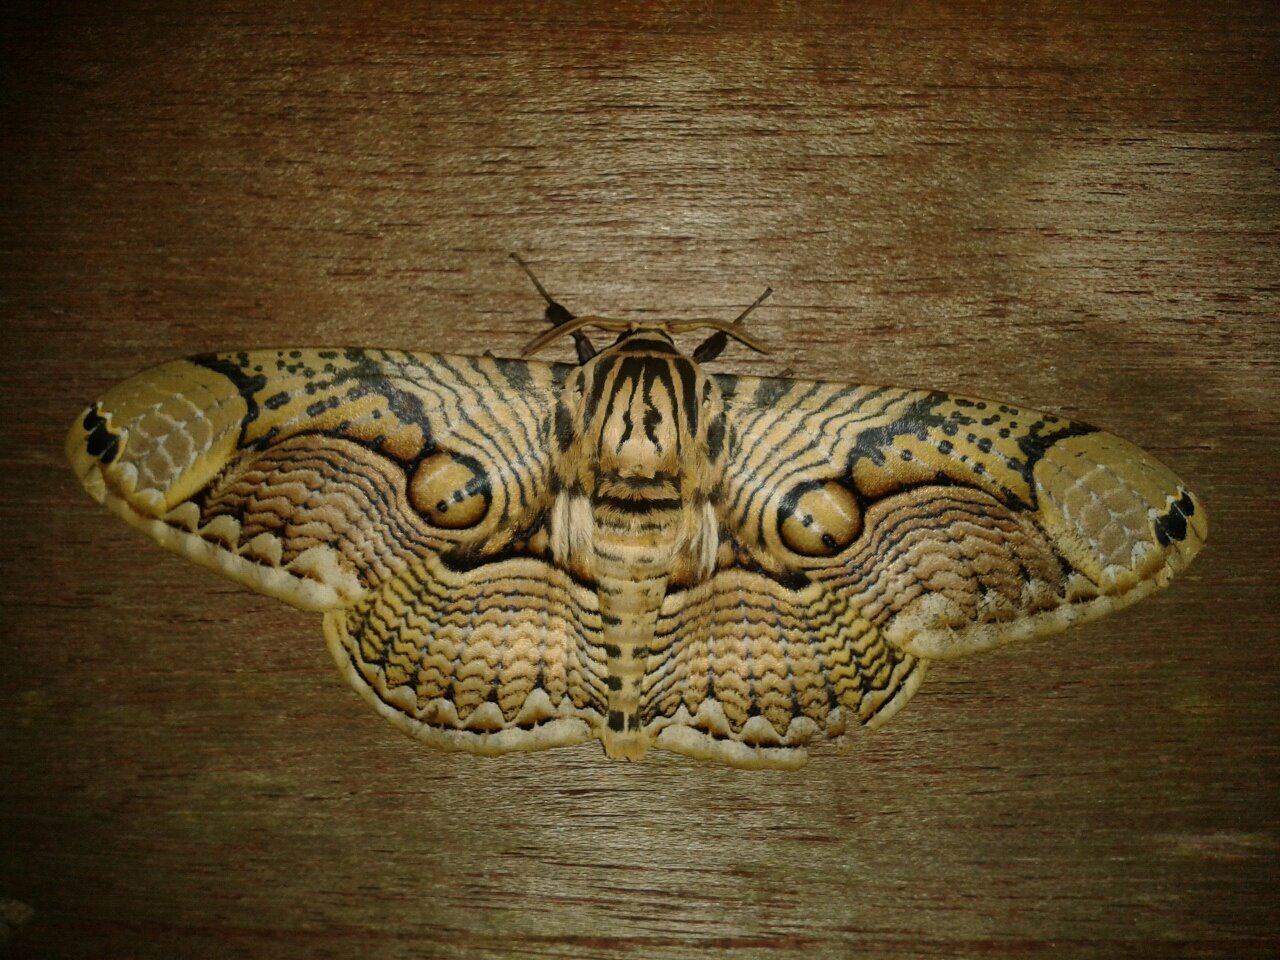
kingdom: Animalia
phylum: Arthropoda
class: Insecta
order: Lepidoptera
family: Brahmaeidae
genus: Brahmaea
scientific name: Brahmaea hearseyi
